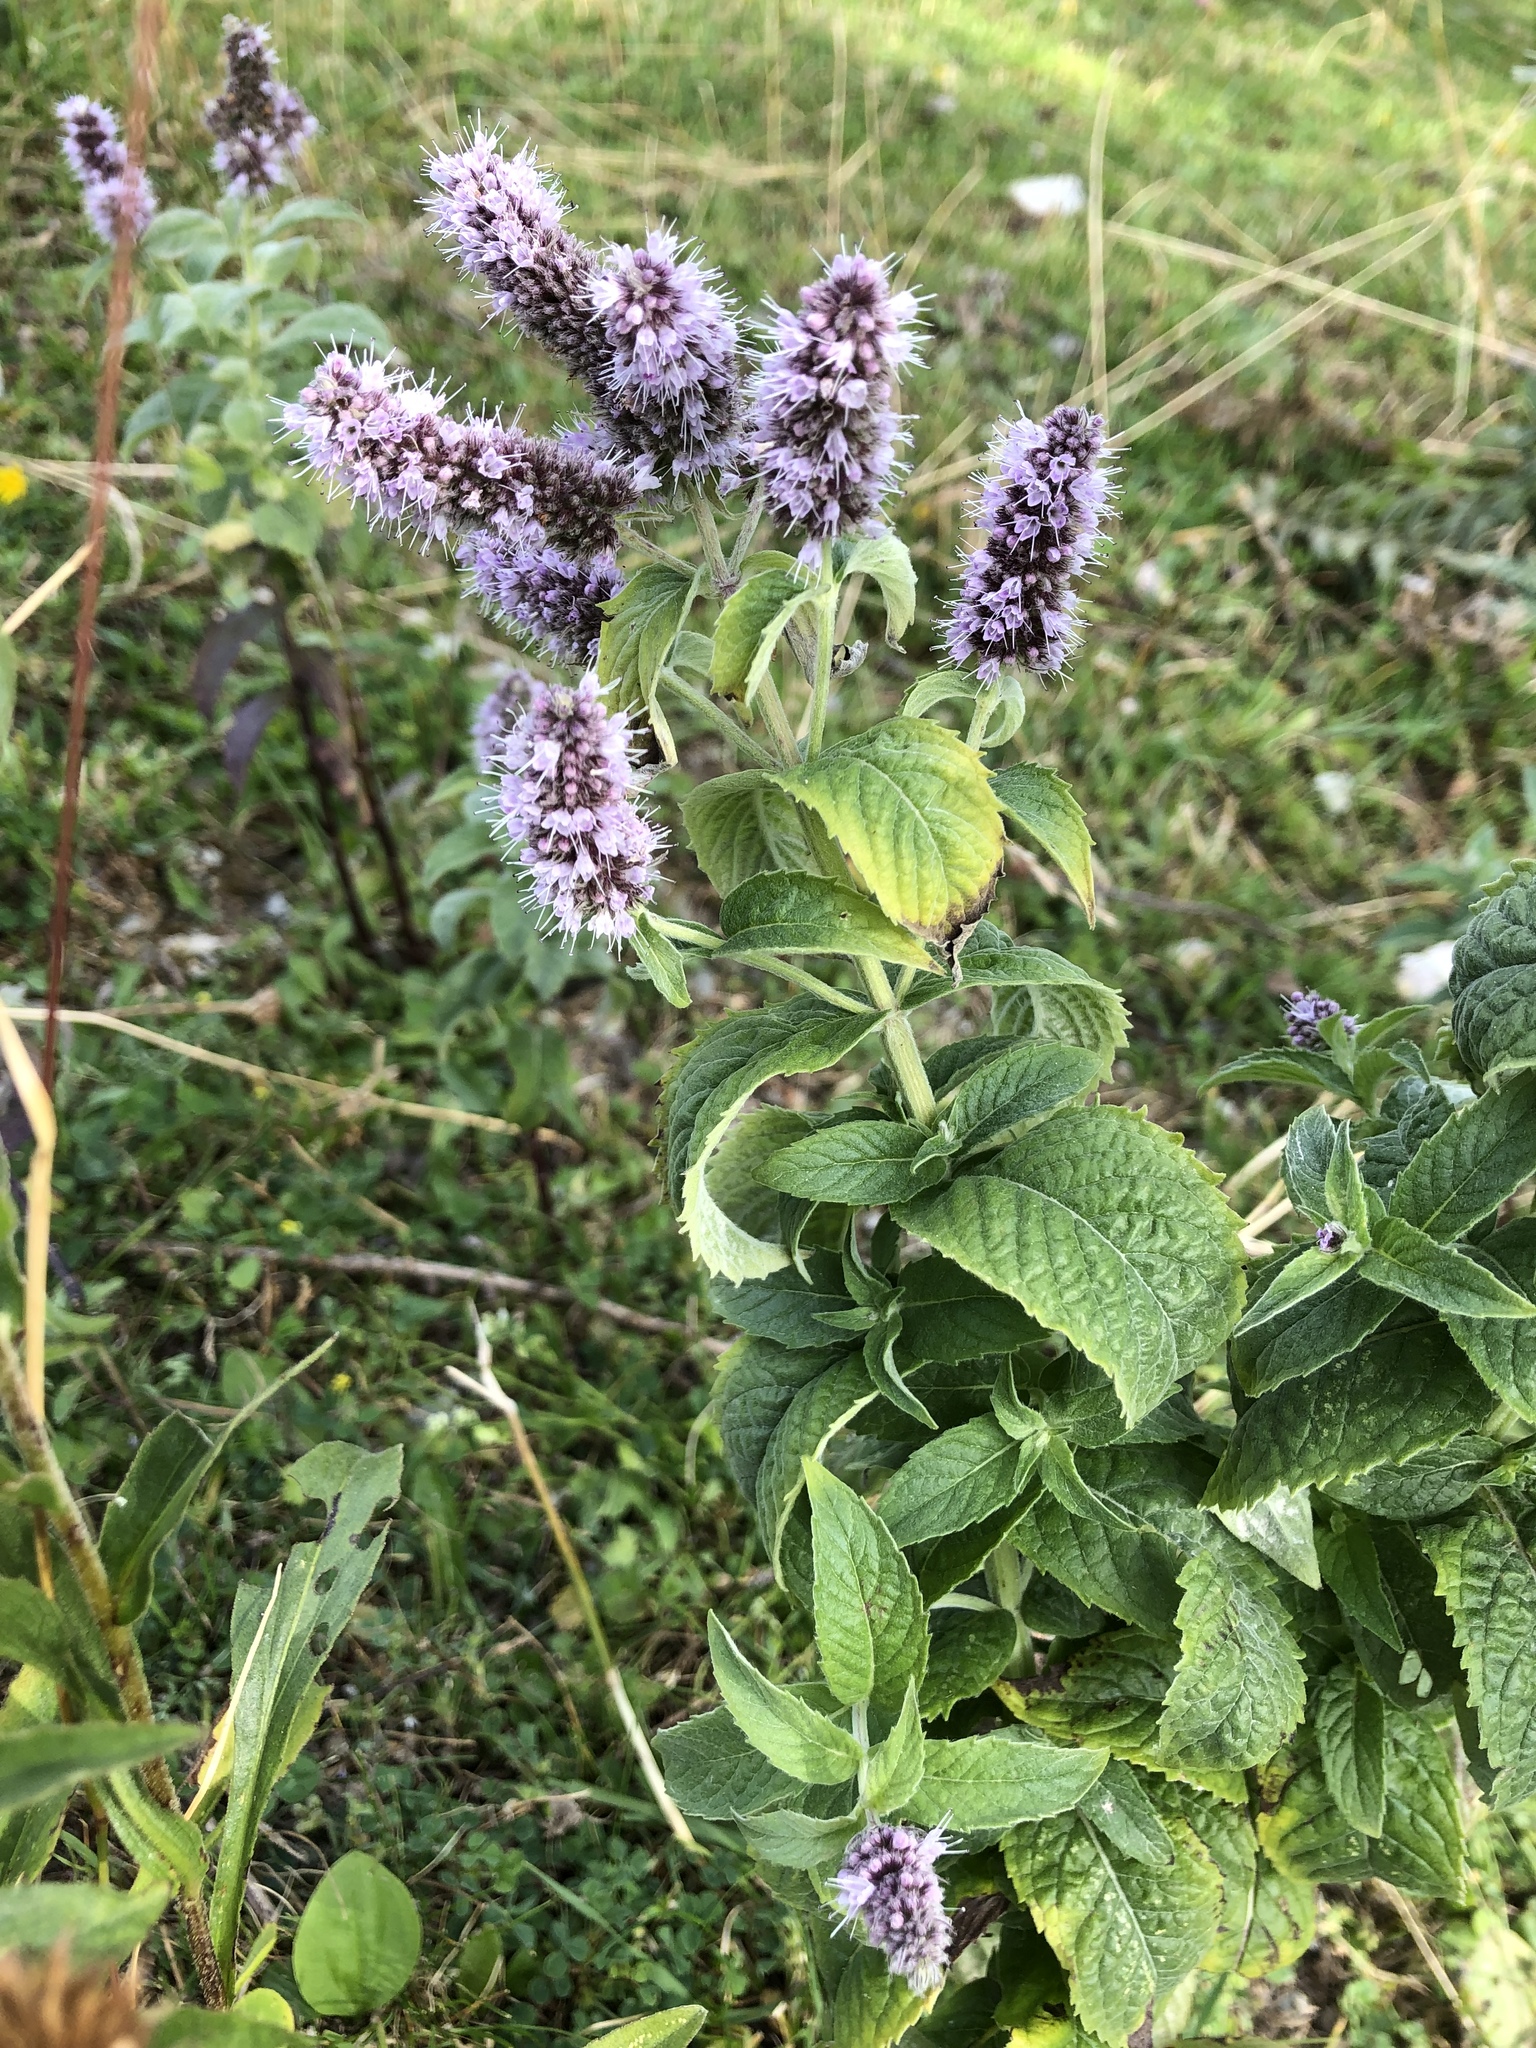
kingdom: Plantae
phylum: Tracheophyta
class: Magnoliopsida
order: Lamiales
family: Lamiaceae
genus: Mentha
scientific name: Mentha longifolia
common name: Horse mint
